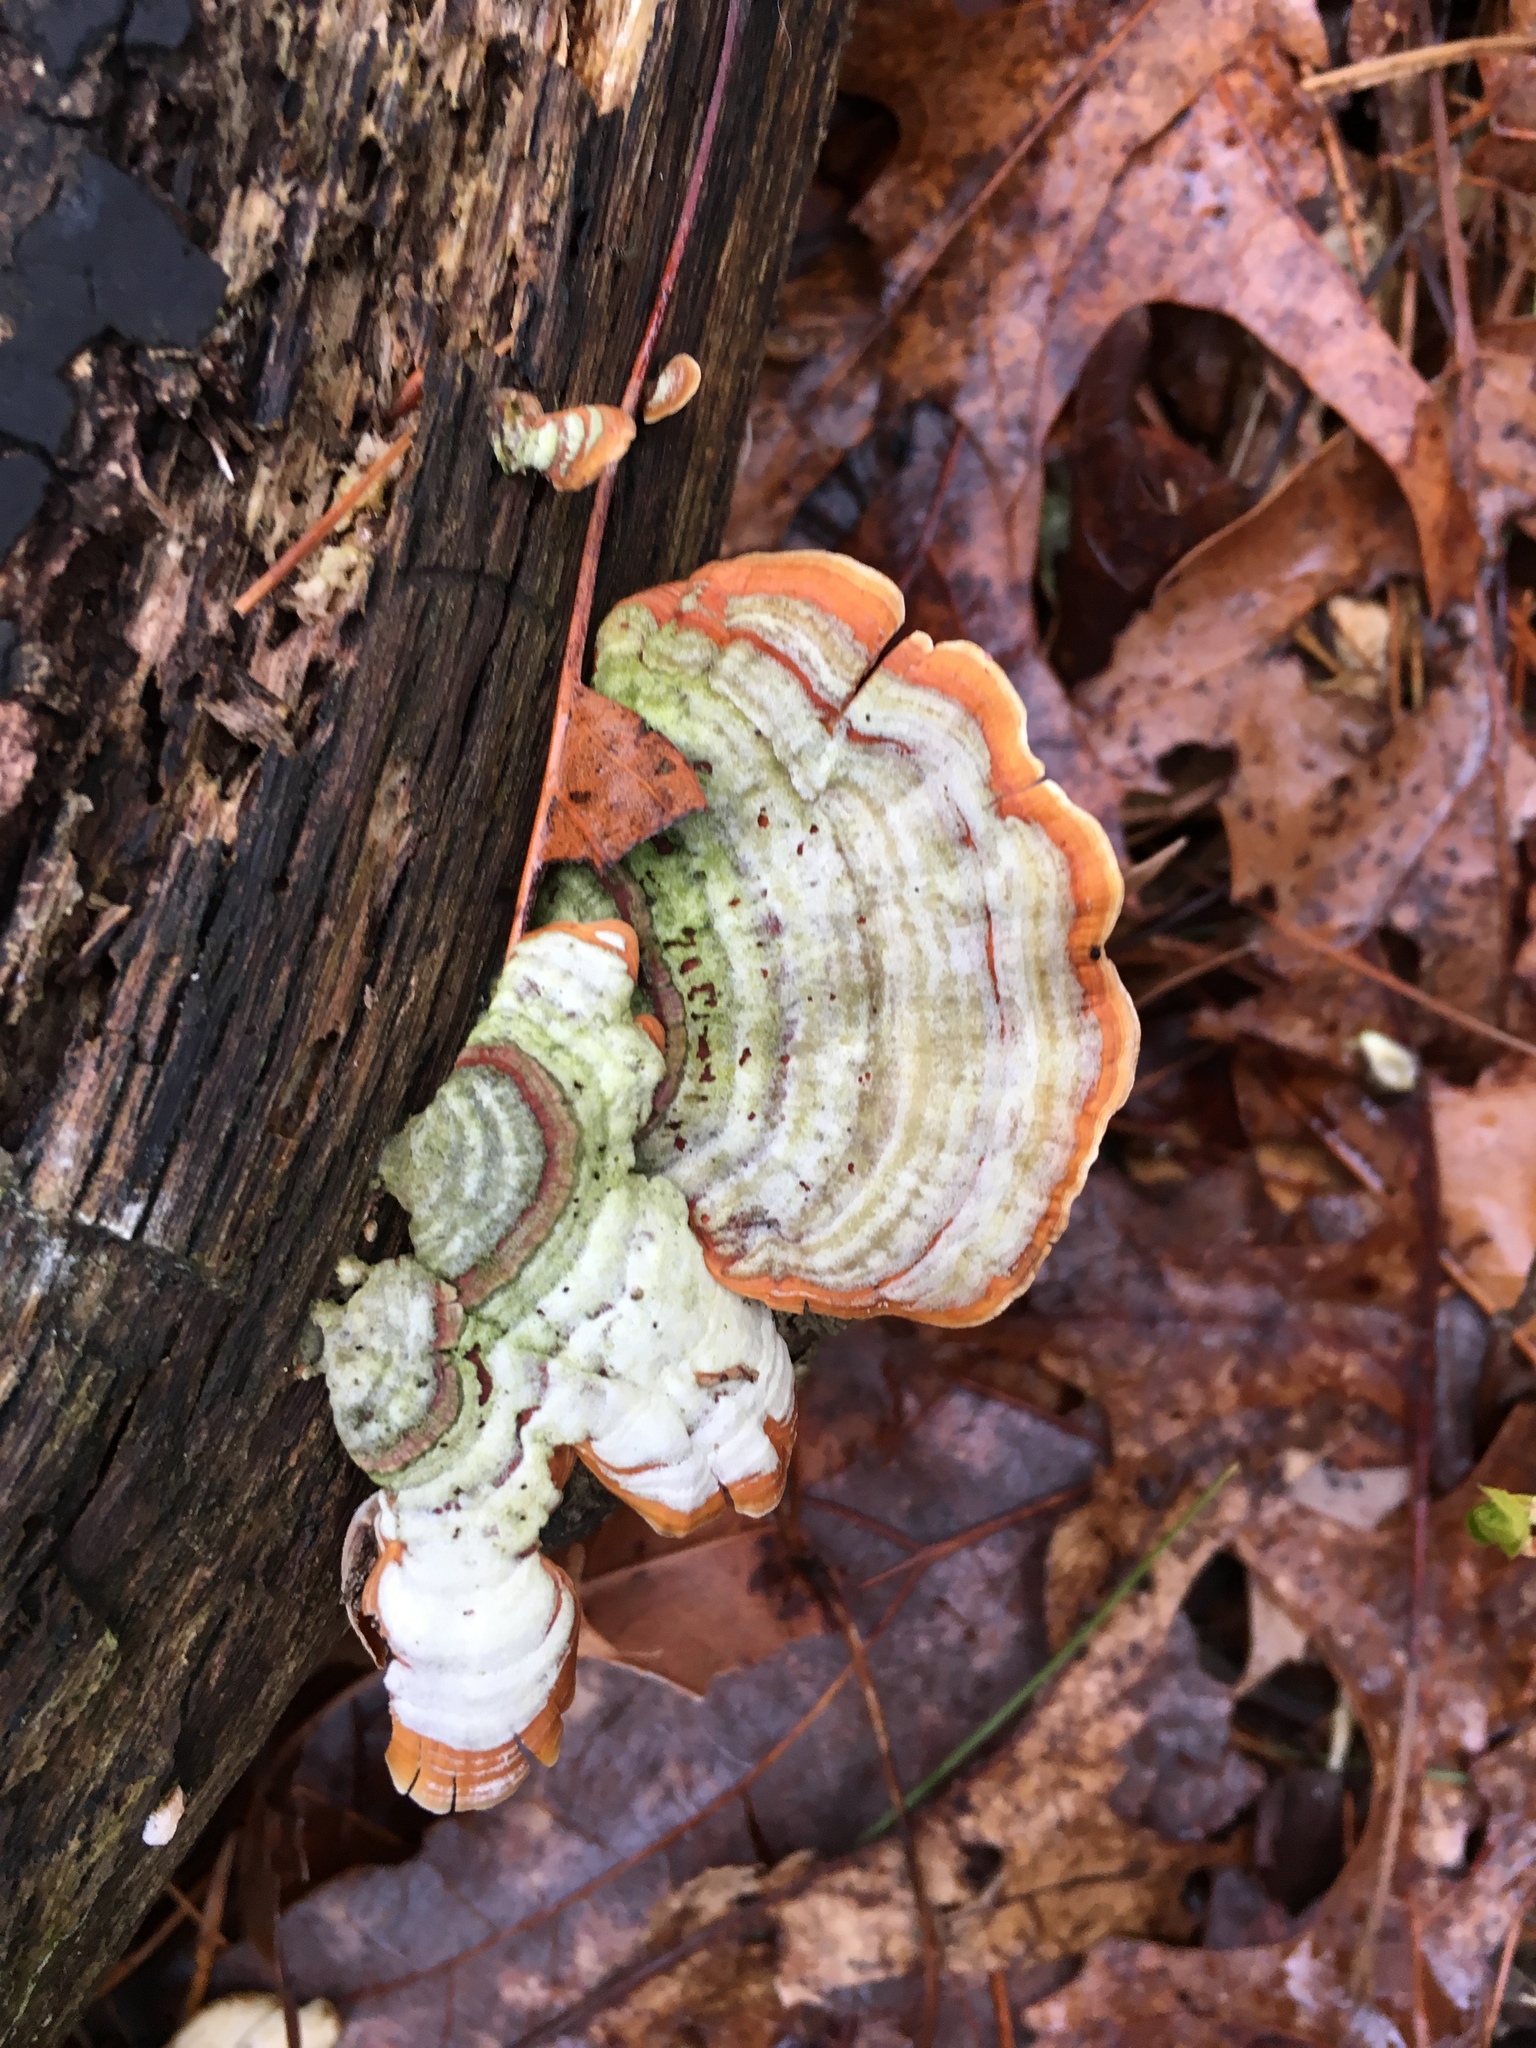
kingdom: Fungi
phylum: Basidiomycota
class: Agaricomycetes
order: Russulales
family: Stereaceae
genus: Stereum
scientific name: Stereum ostrea
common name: False turkeytail
